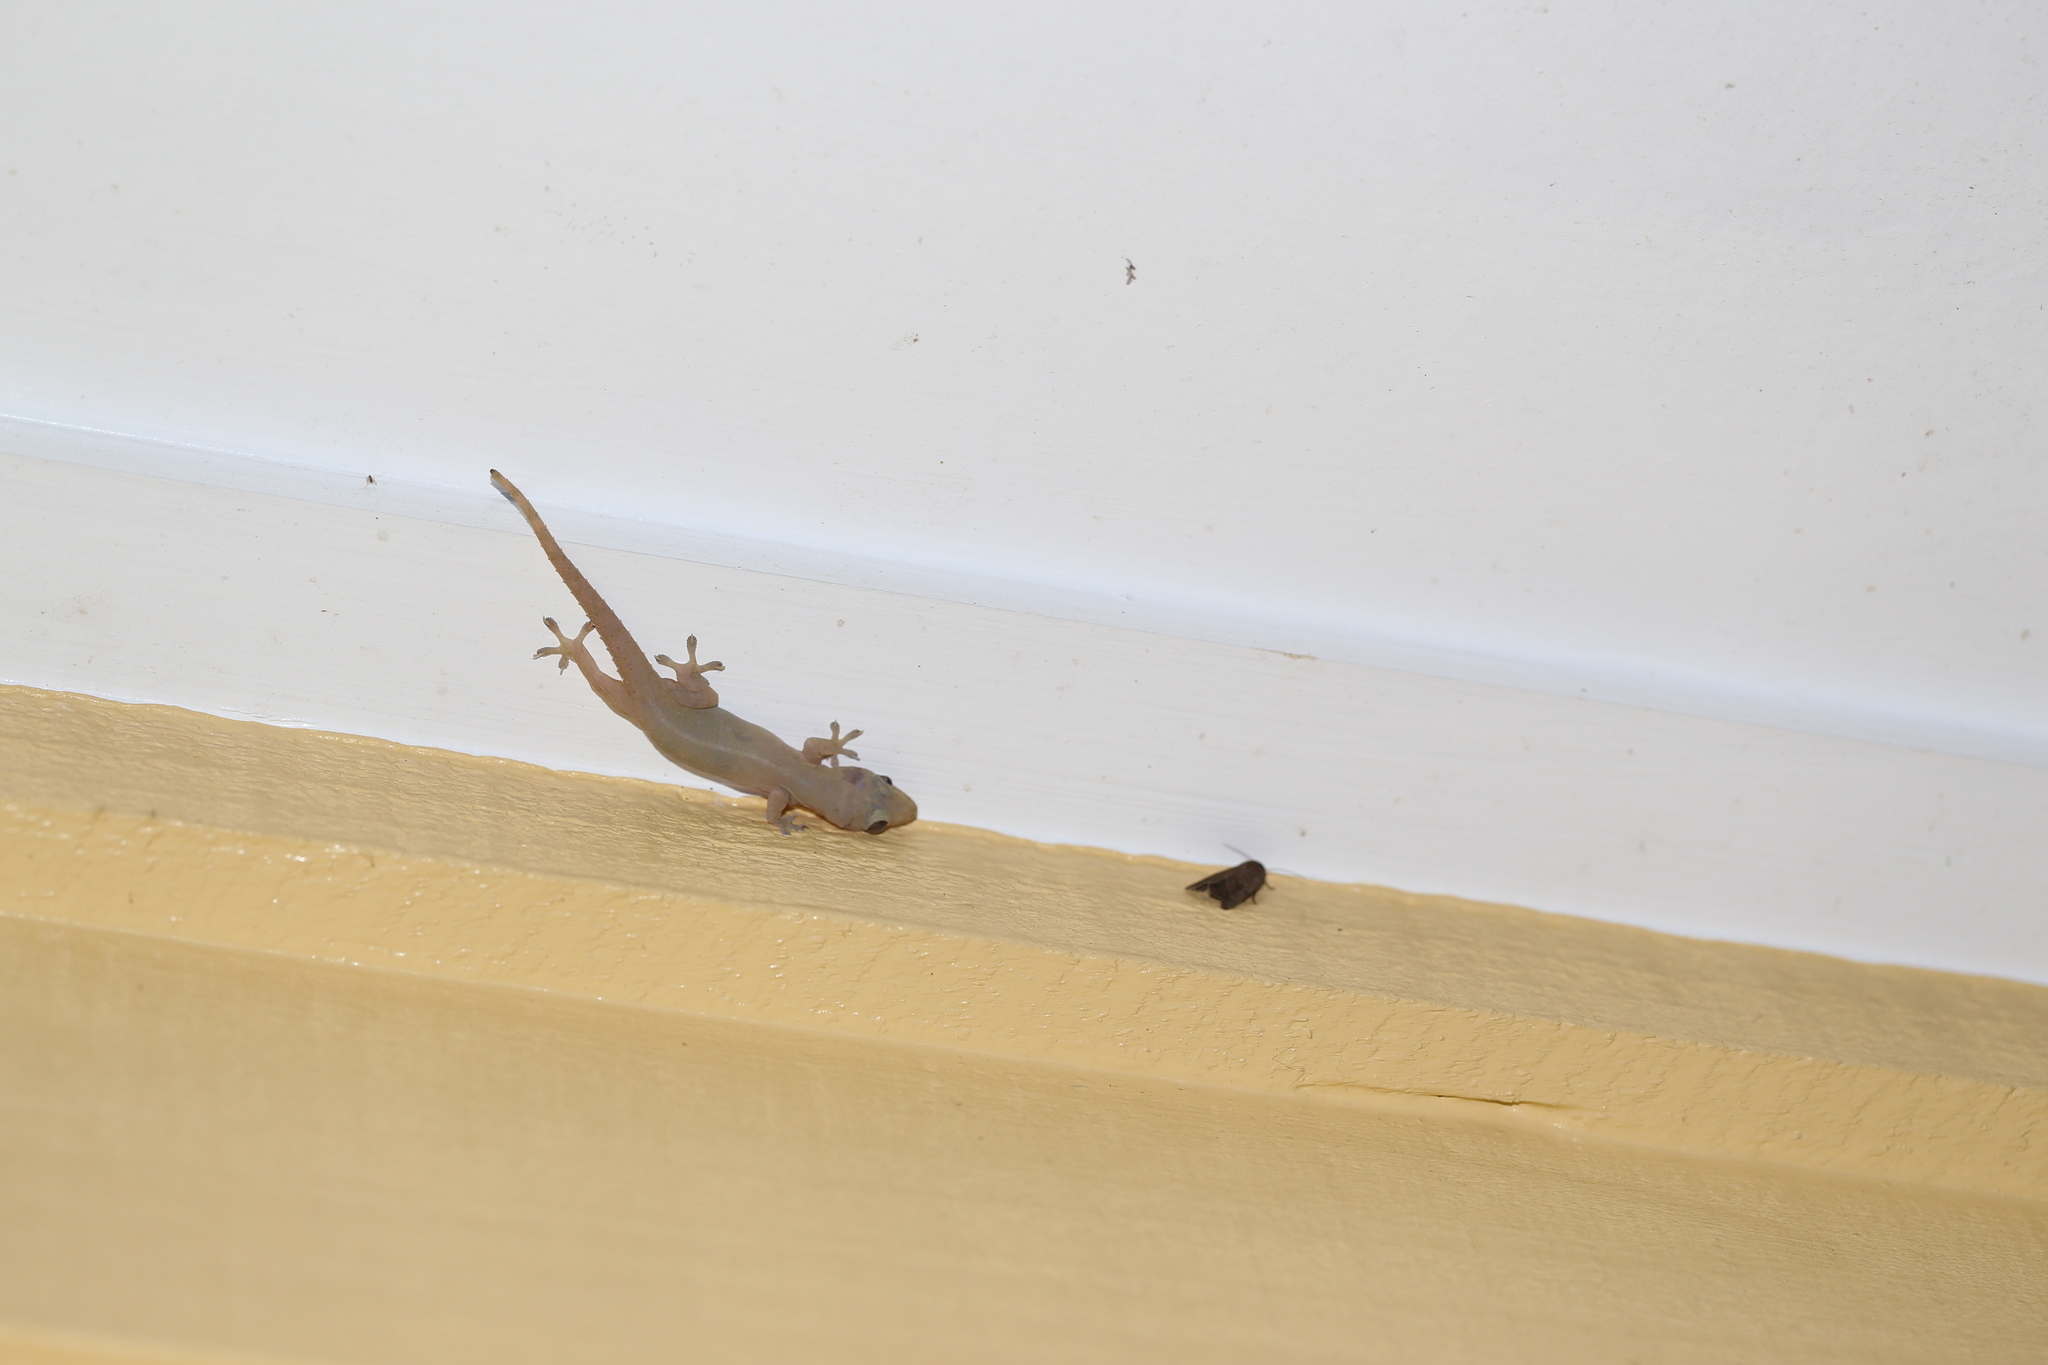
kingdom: Animalia
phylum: Chordata
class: Squamata
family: Gekkonidae
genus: Hemidactylus
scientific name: Hemidactylus frenatus
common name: Common house gecko
